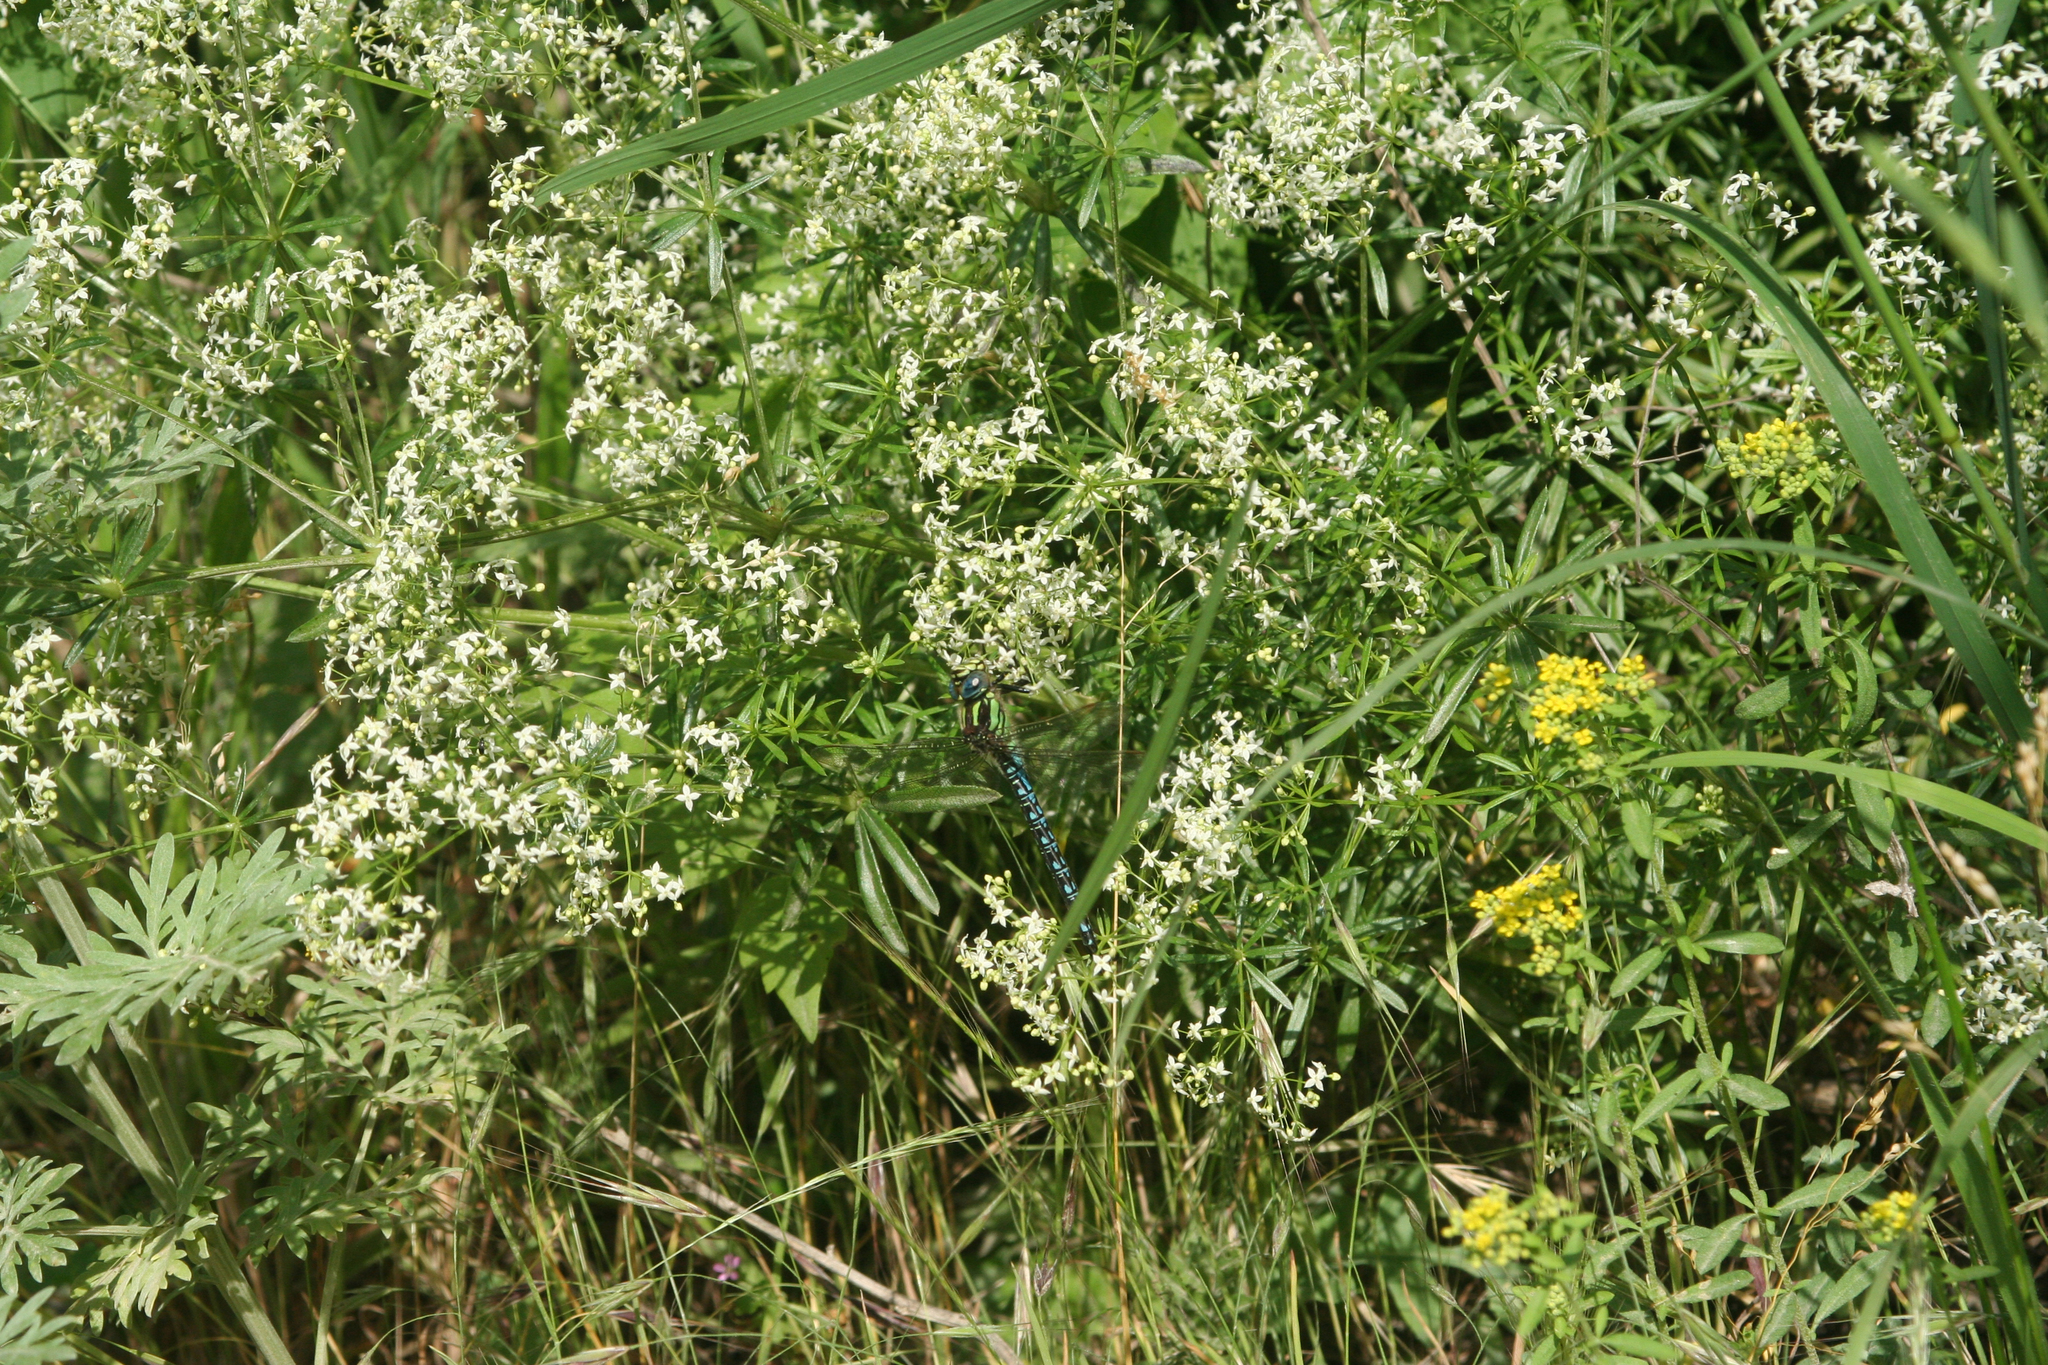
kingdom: Plantae
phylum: Tracheophyta
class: Magnoliopsida
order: Gentianales
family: Rubiaceae
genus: Galium
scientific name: Galium mollugo
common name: Hedge bedstraw
